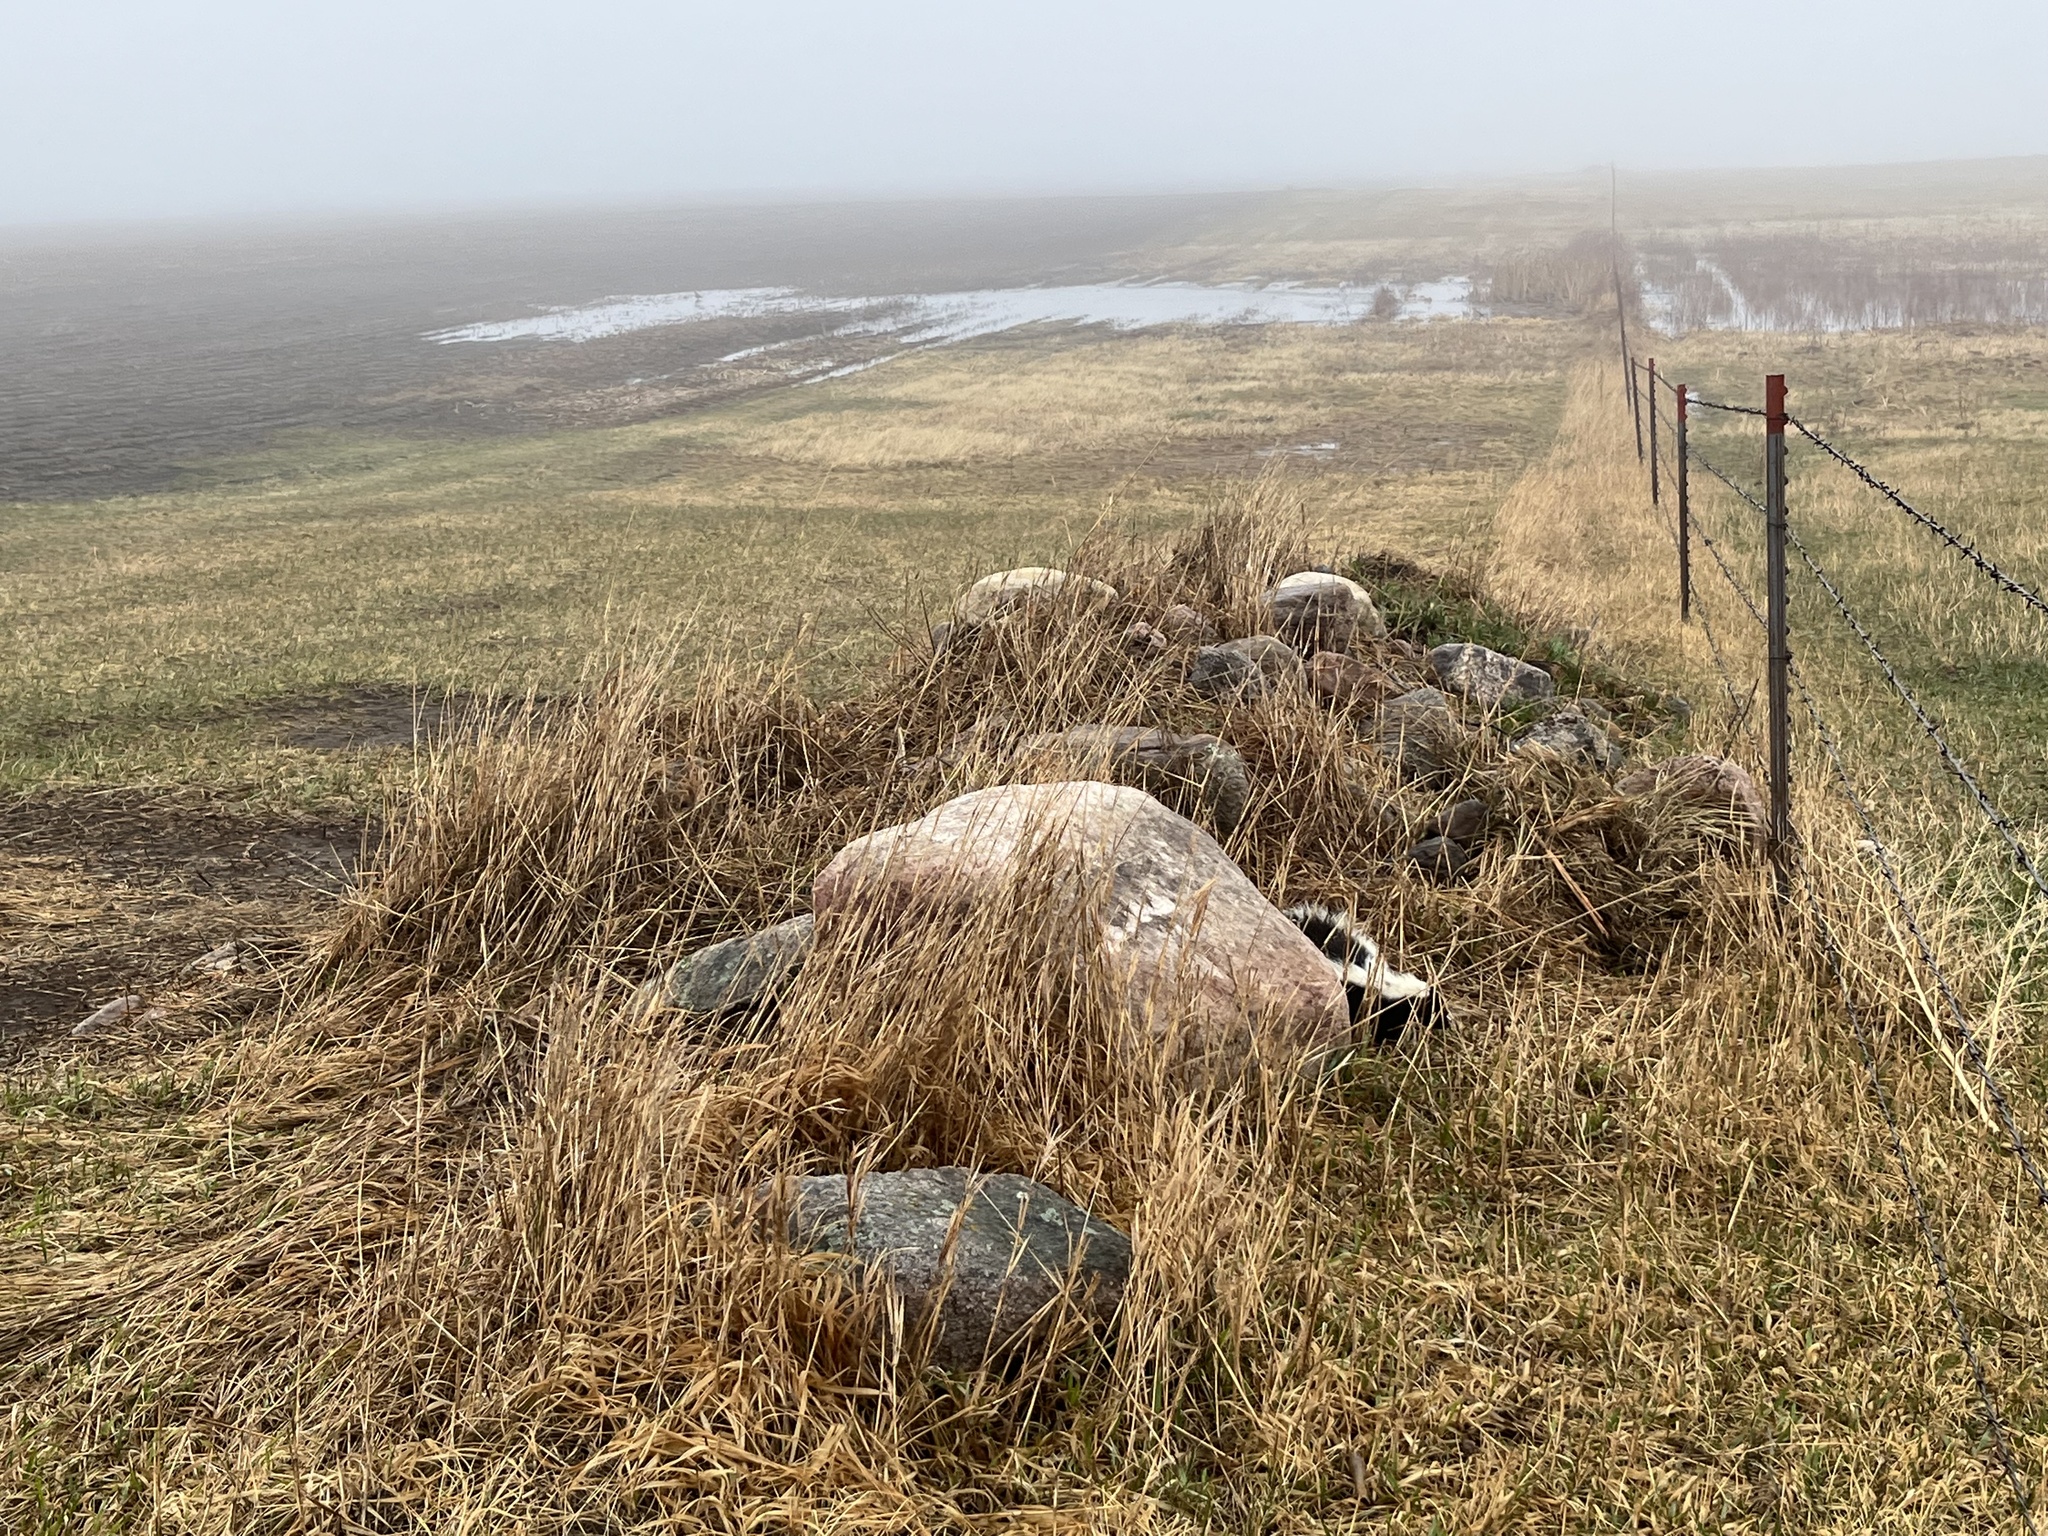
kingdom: Animalia
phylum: Chordata
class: Mammalia
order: Carnivora
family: Mephitidae
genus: Mephitis
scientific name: Mephitis mephitis
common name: Striped skunk
